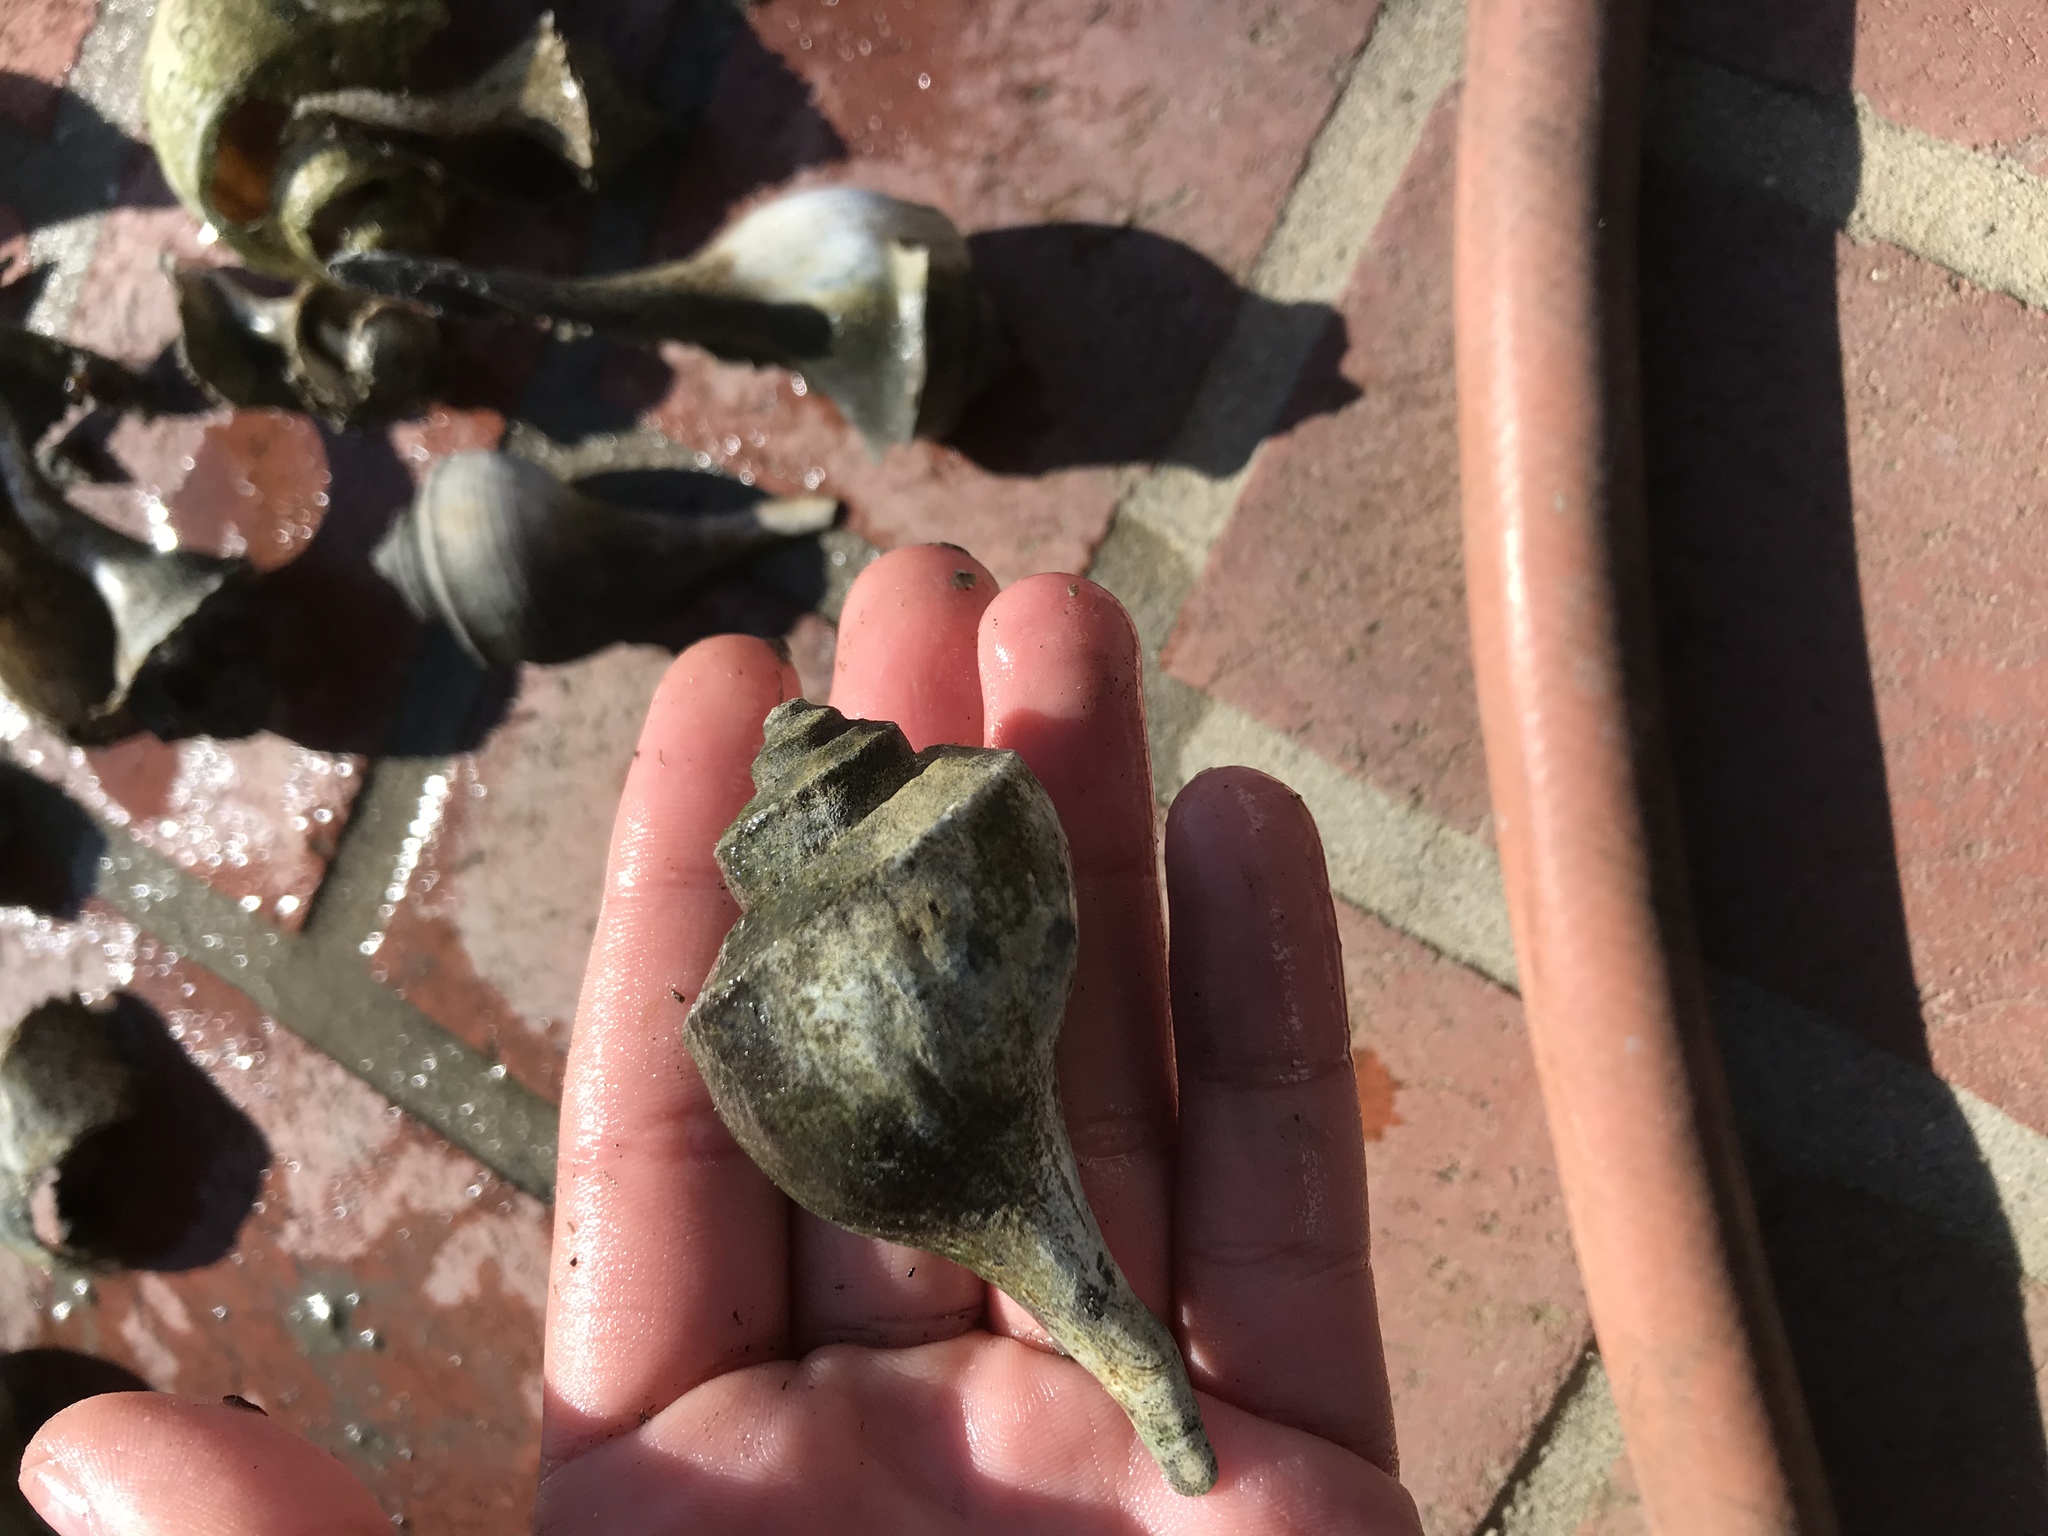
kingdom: Animalia
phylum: Mollusca
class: Gastropoda
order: Neogastropoda
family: Busyconidae
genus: Busycotypus
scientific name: Busycotypus canaliculatus
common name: Channeled whelk
